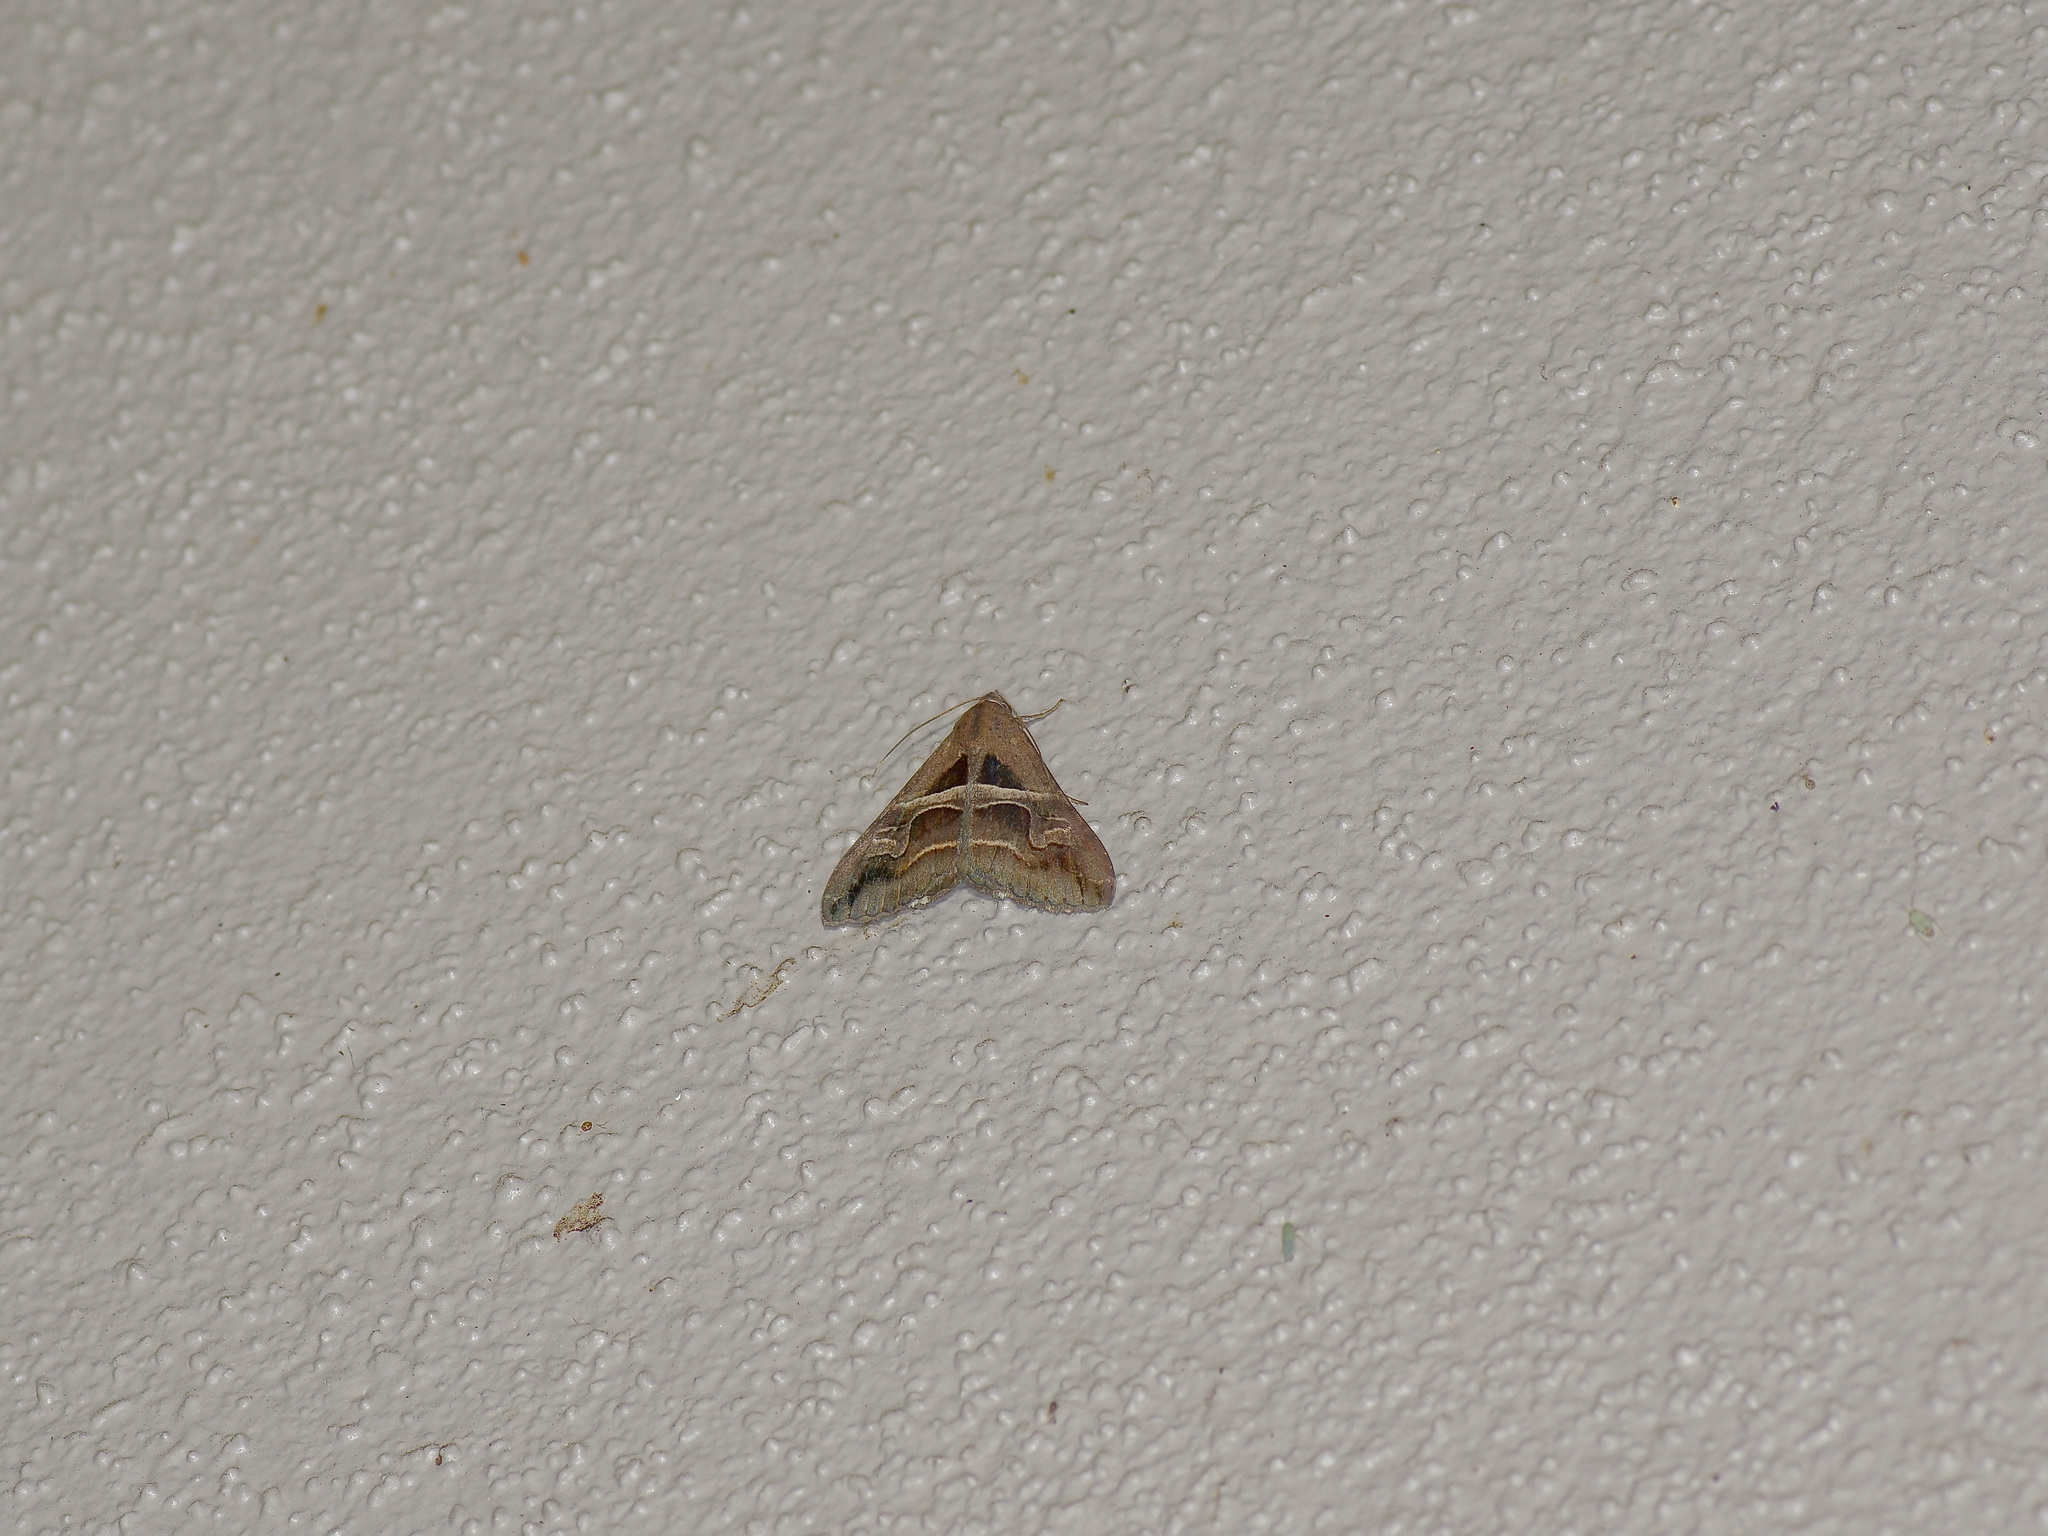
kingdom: Animalia
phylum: Arthropoda
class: Insecta
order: Lepidoptera
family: Erebidae
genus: Melipotis
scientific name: Melipotis cellaris
